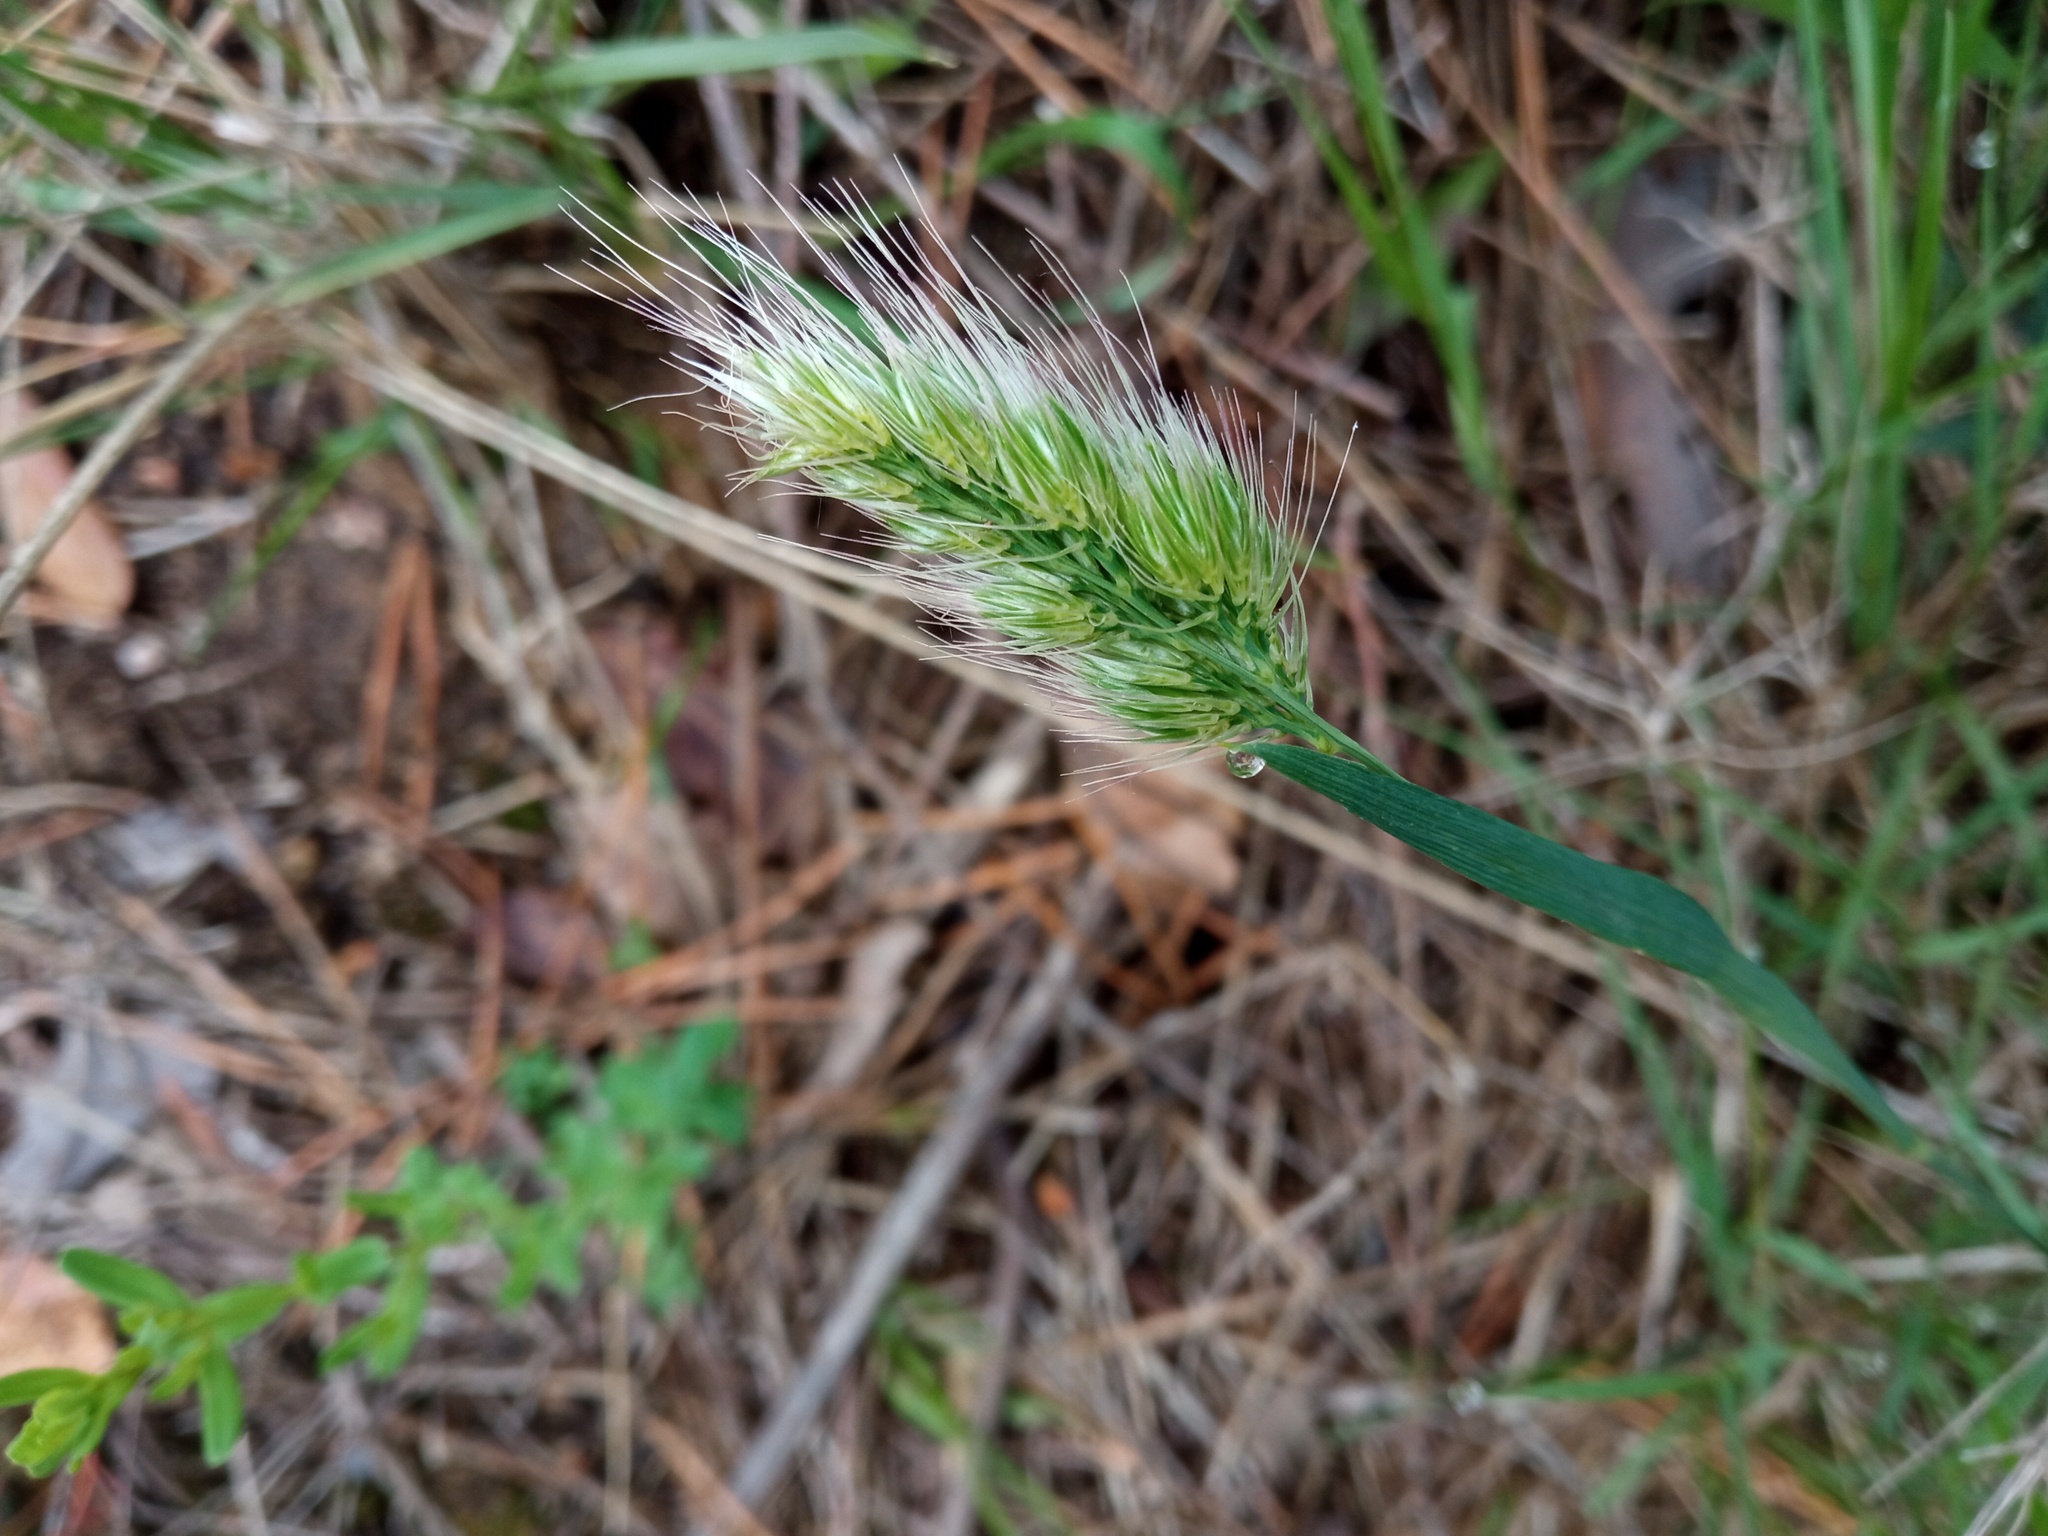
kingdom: Plantae
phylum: Tracheophyta
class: Liliopsida
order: Poales
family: Poaceae
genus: Cynosurus
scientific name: Cynosurus echinatus
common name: Rough dog's-tail
